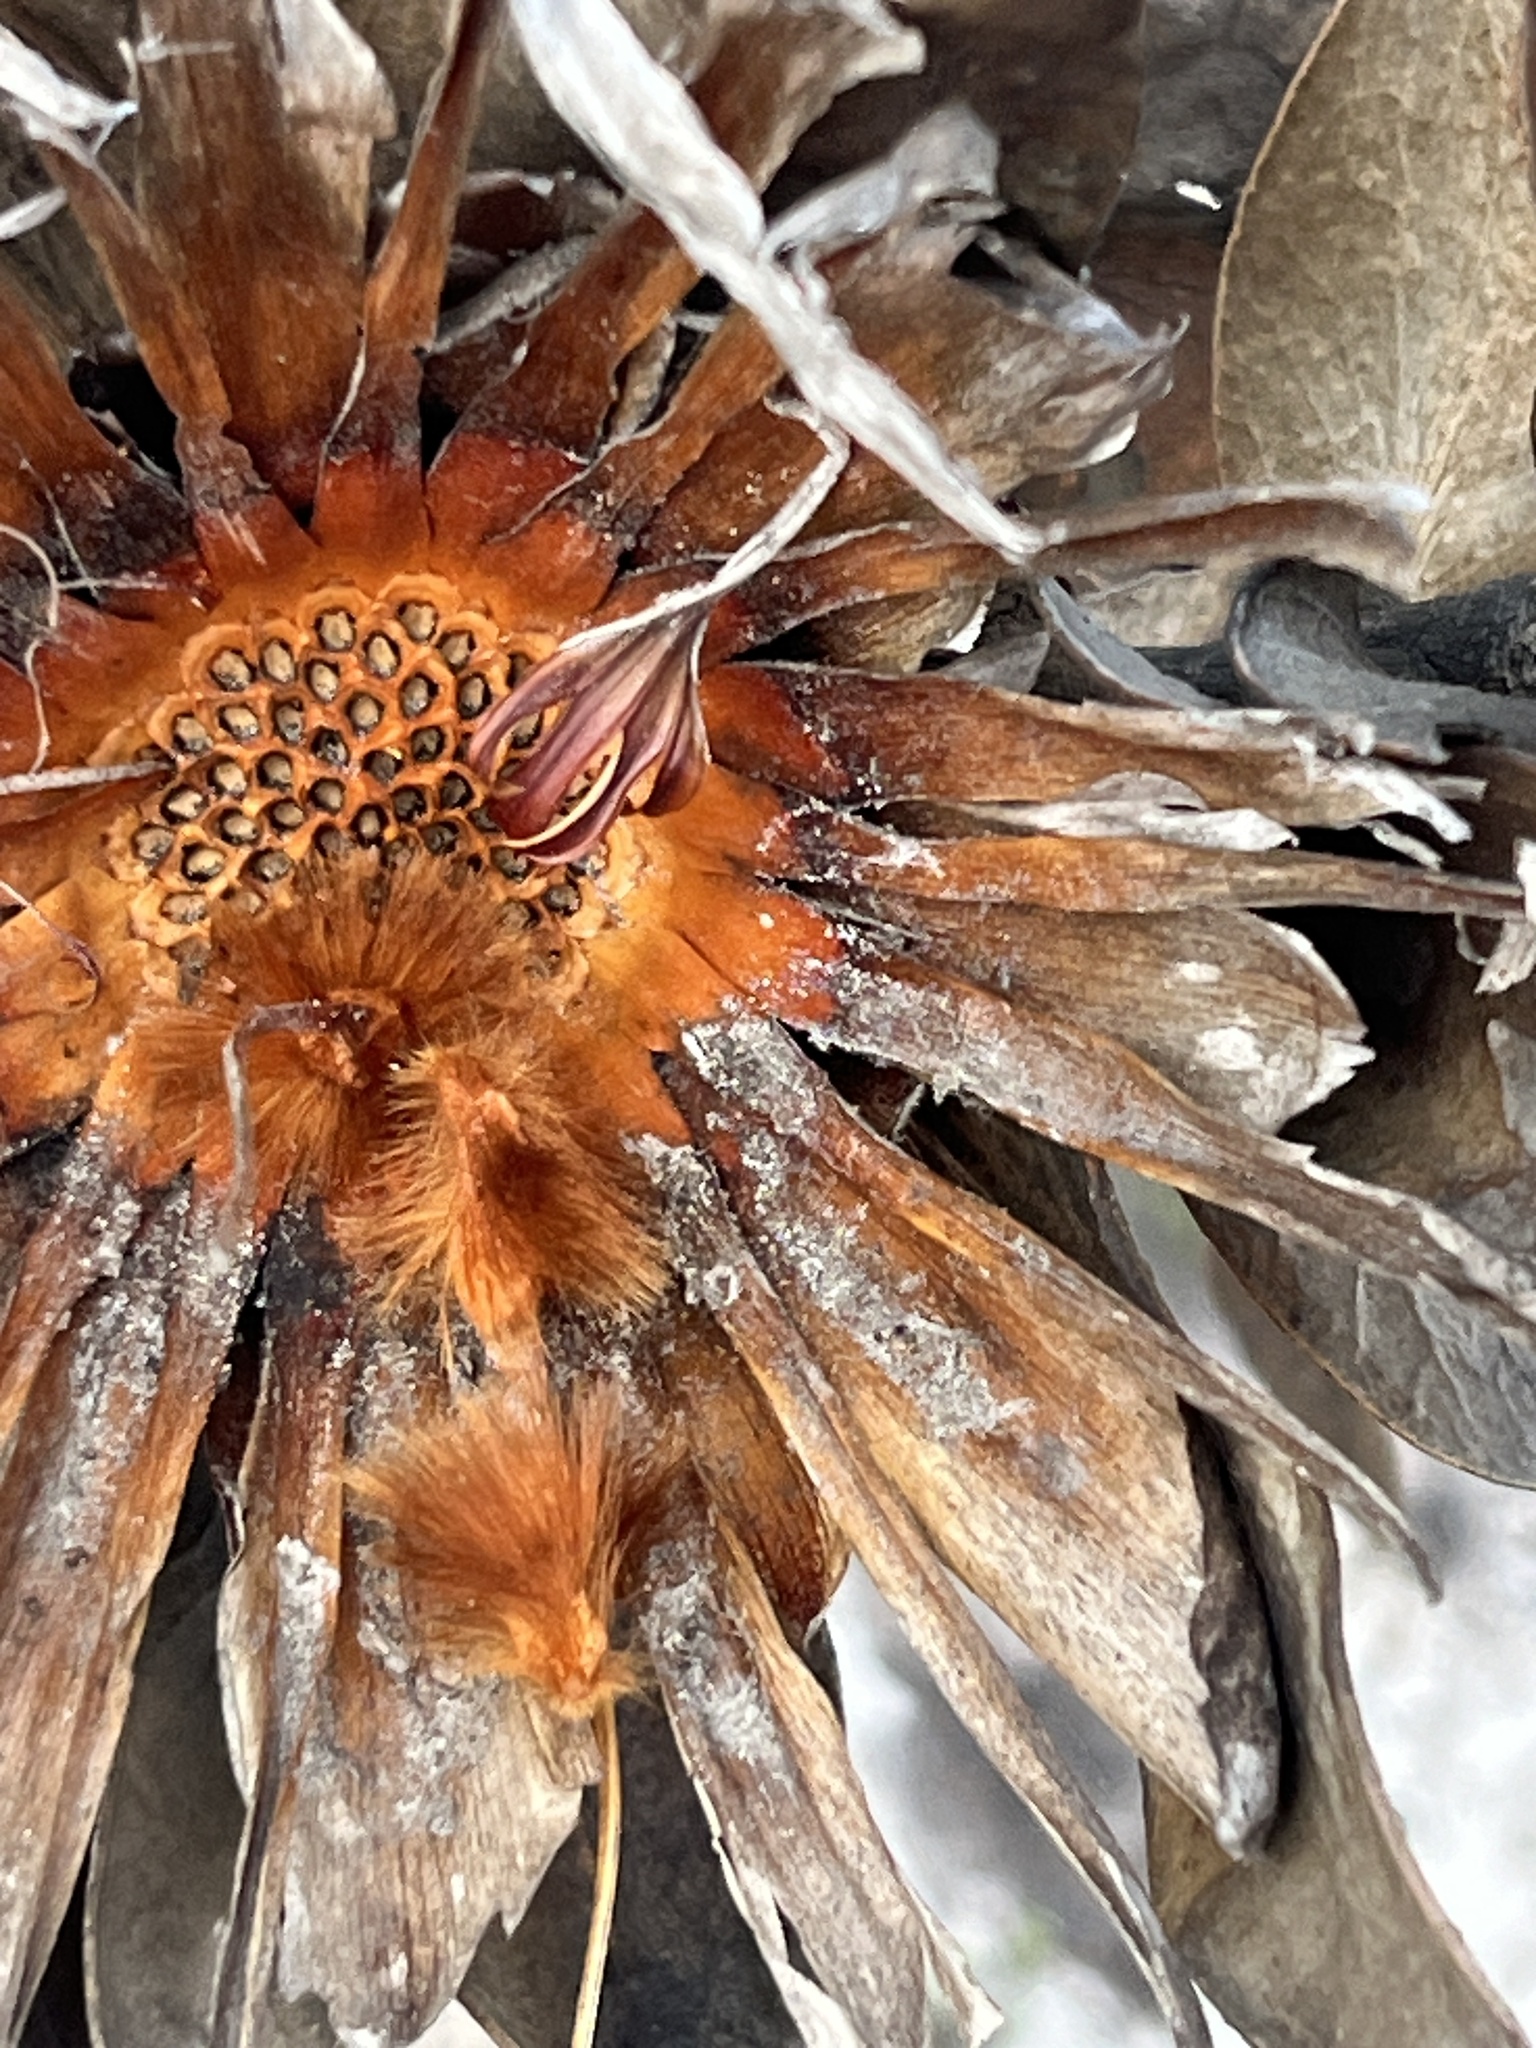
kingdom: Plantae
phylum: Tracheophyta
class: Magnoliopsida
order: Proteales
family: Proteaceae
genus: Protea
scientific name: Protea compacta
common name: Bot river protea
